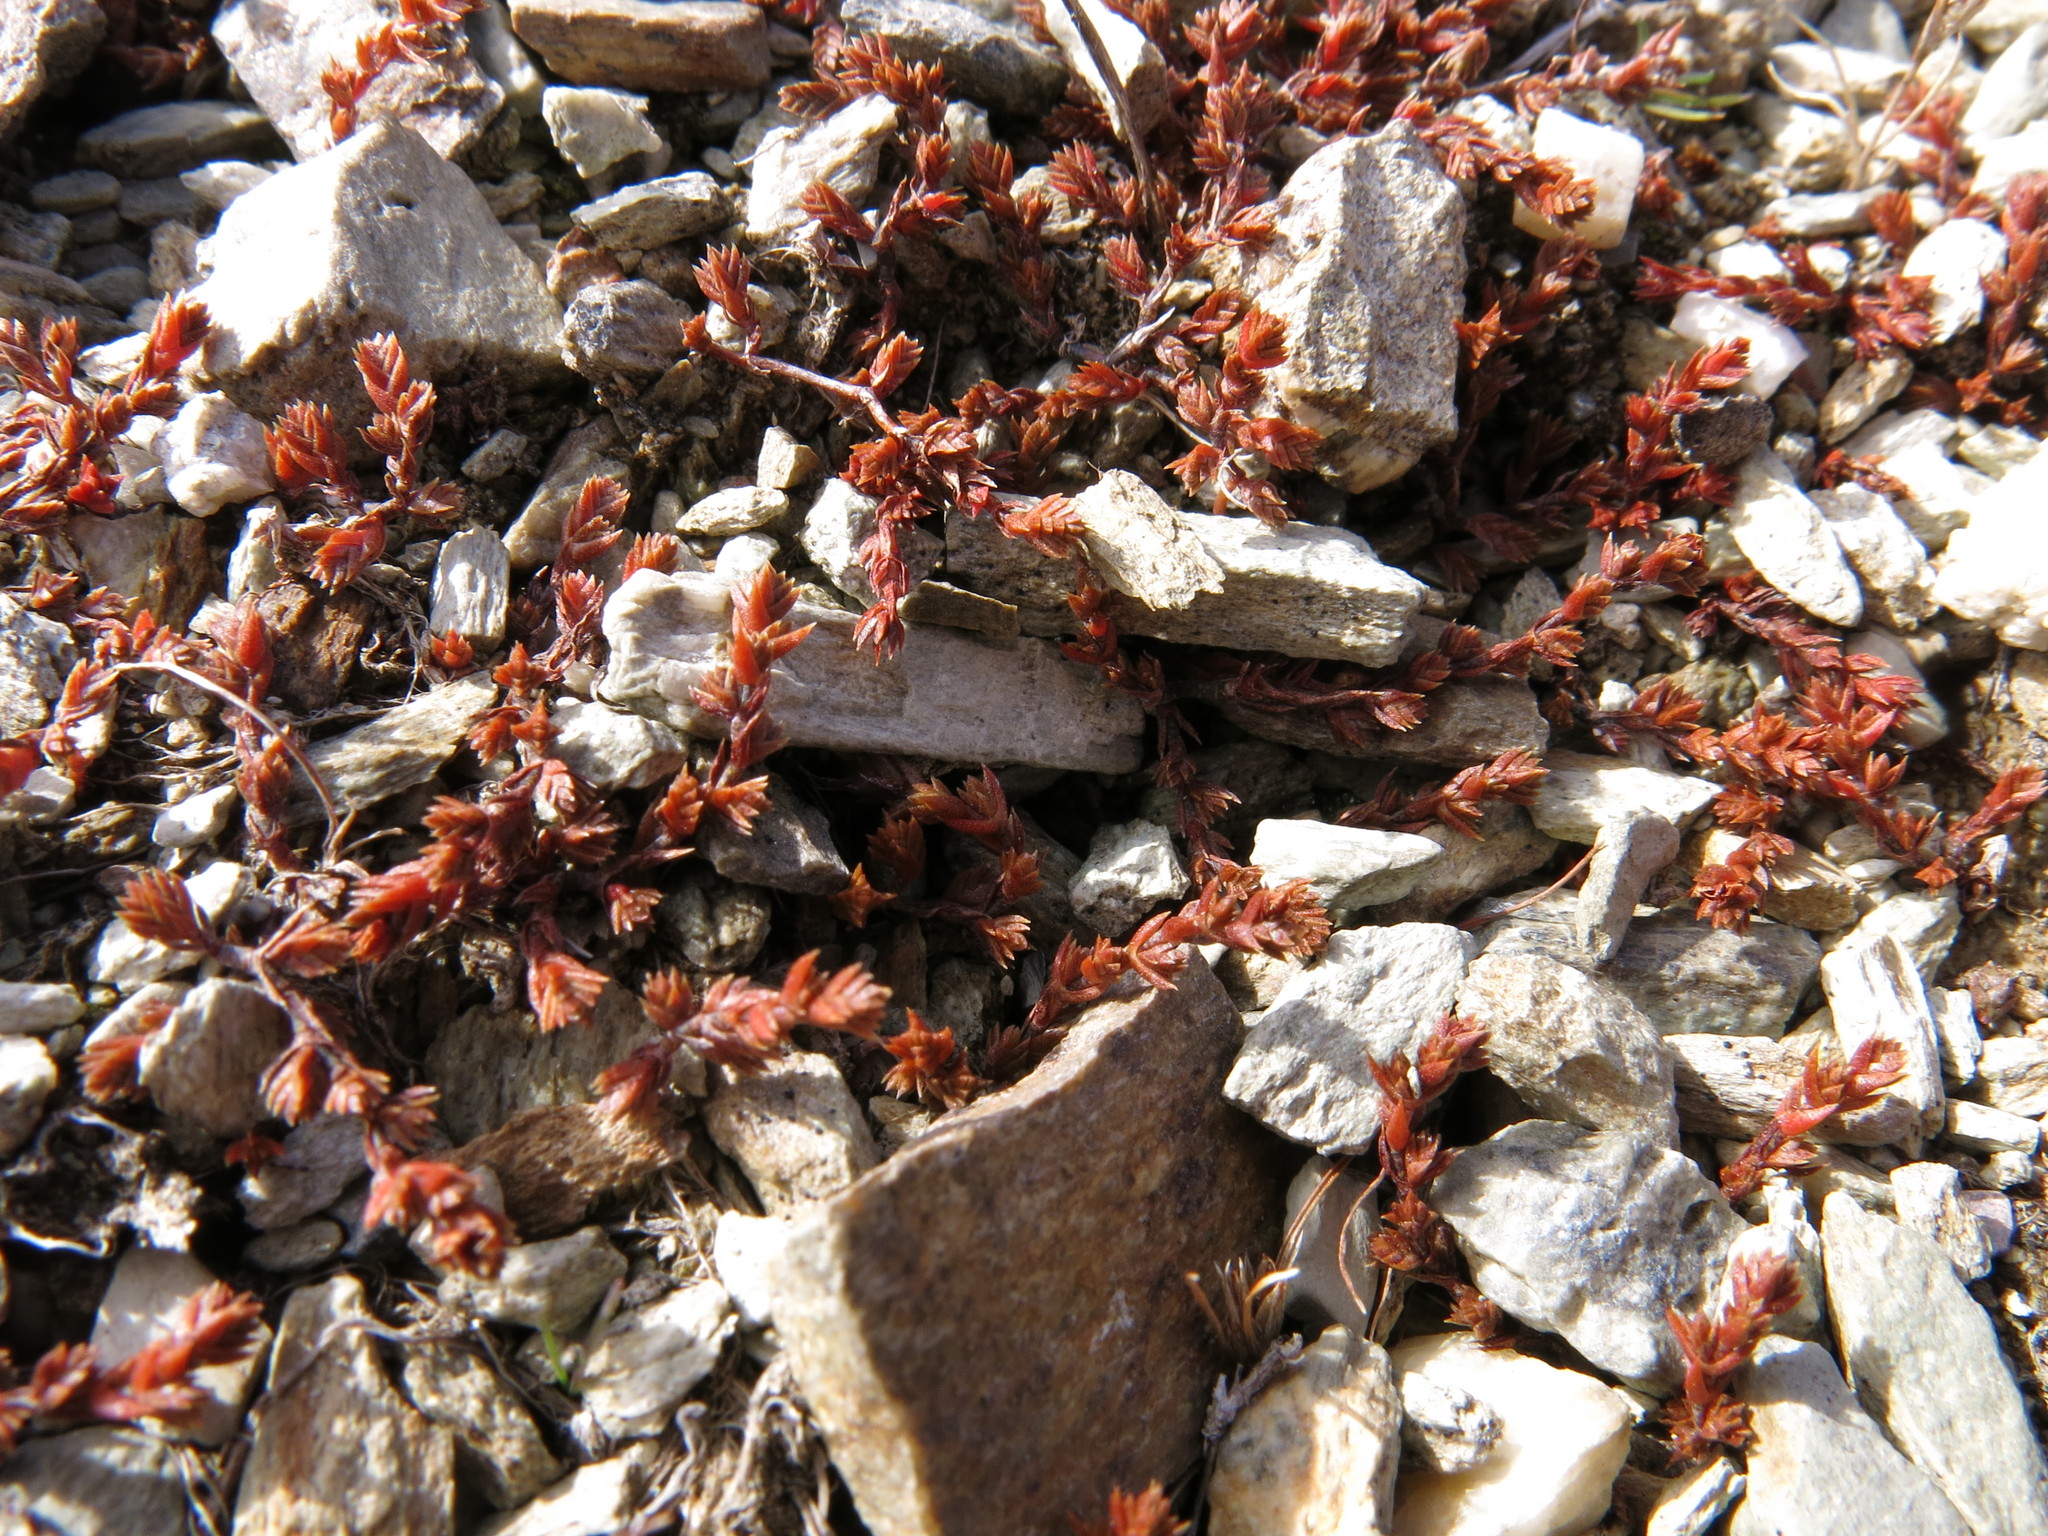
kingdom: Plantae
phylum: Tracheophyta
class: Magnoliopsida
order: Saxifragales
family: Crassulaceae
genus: Crassula
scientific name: Crassula multicaulis
